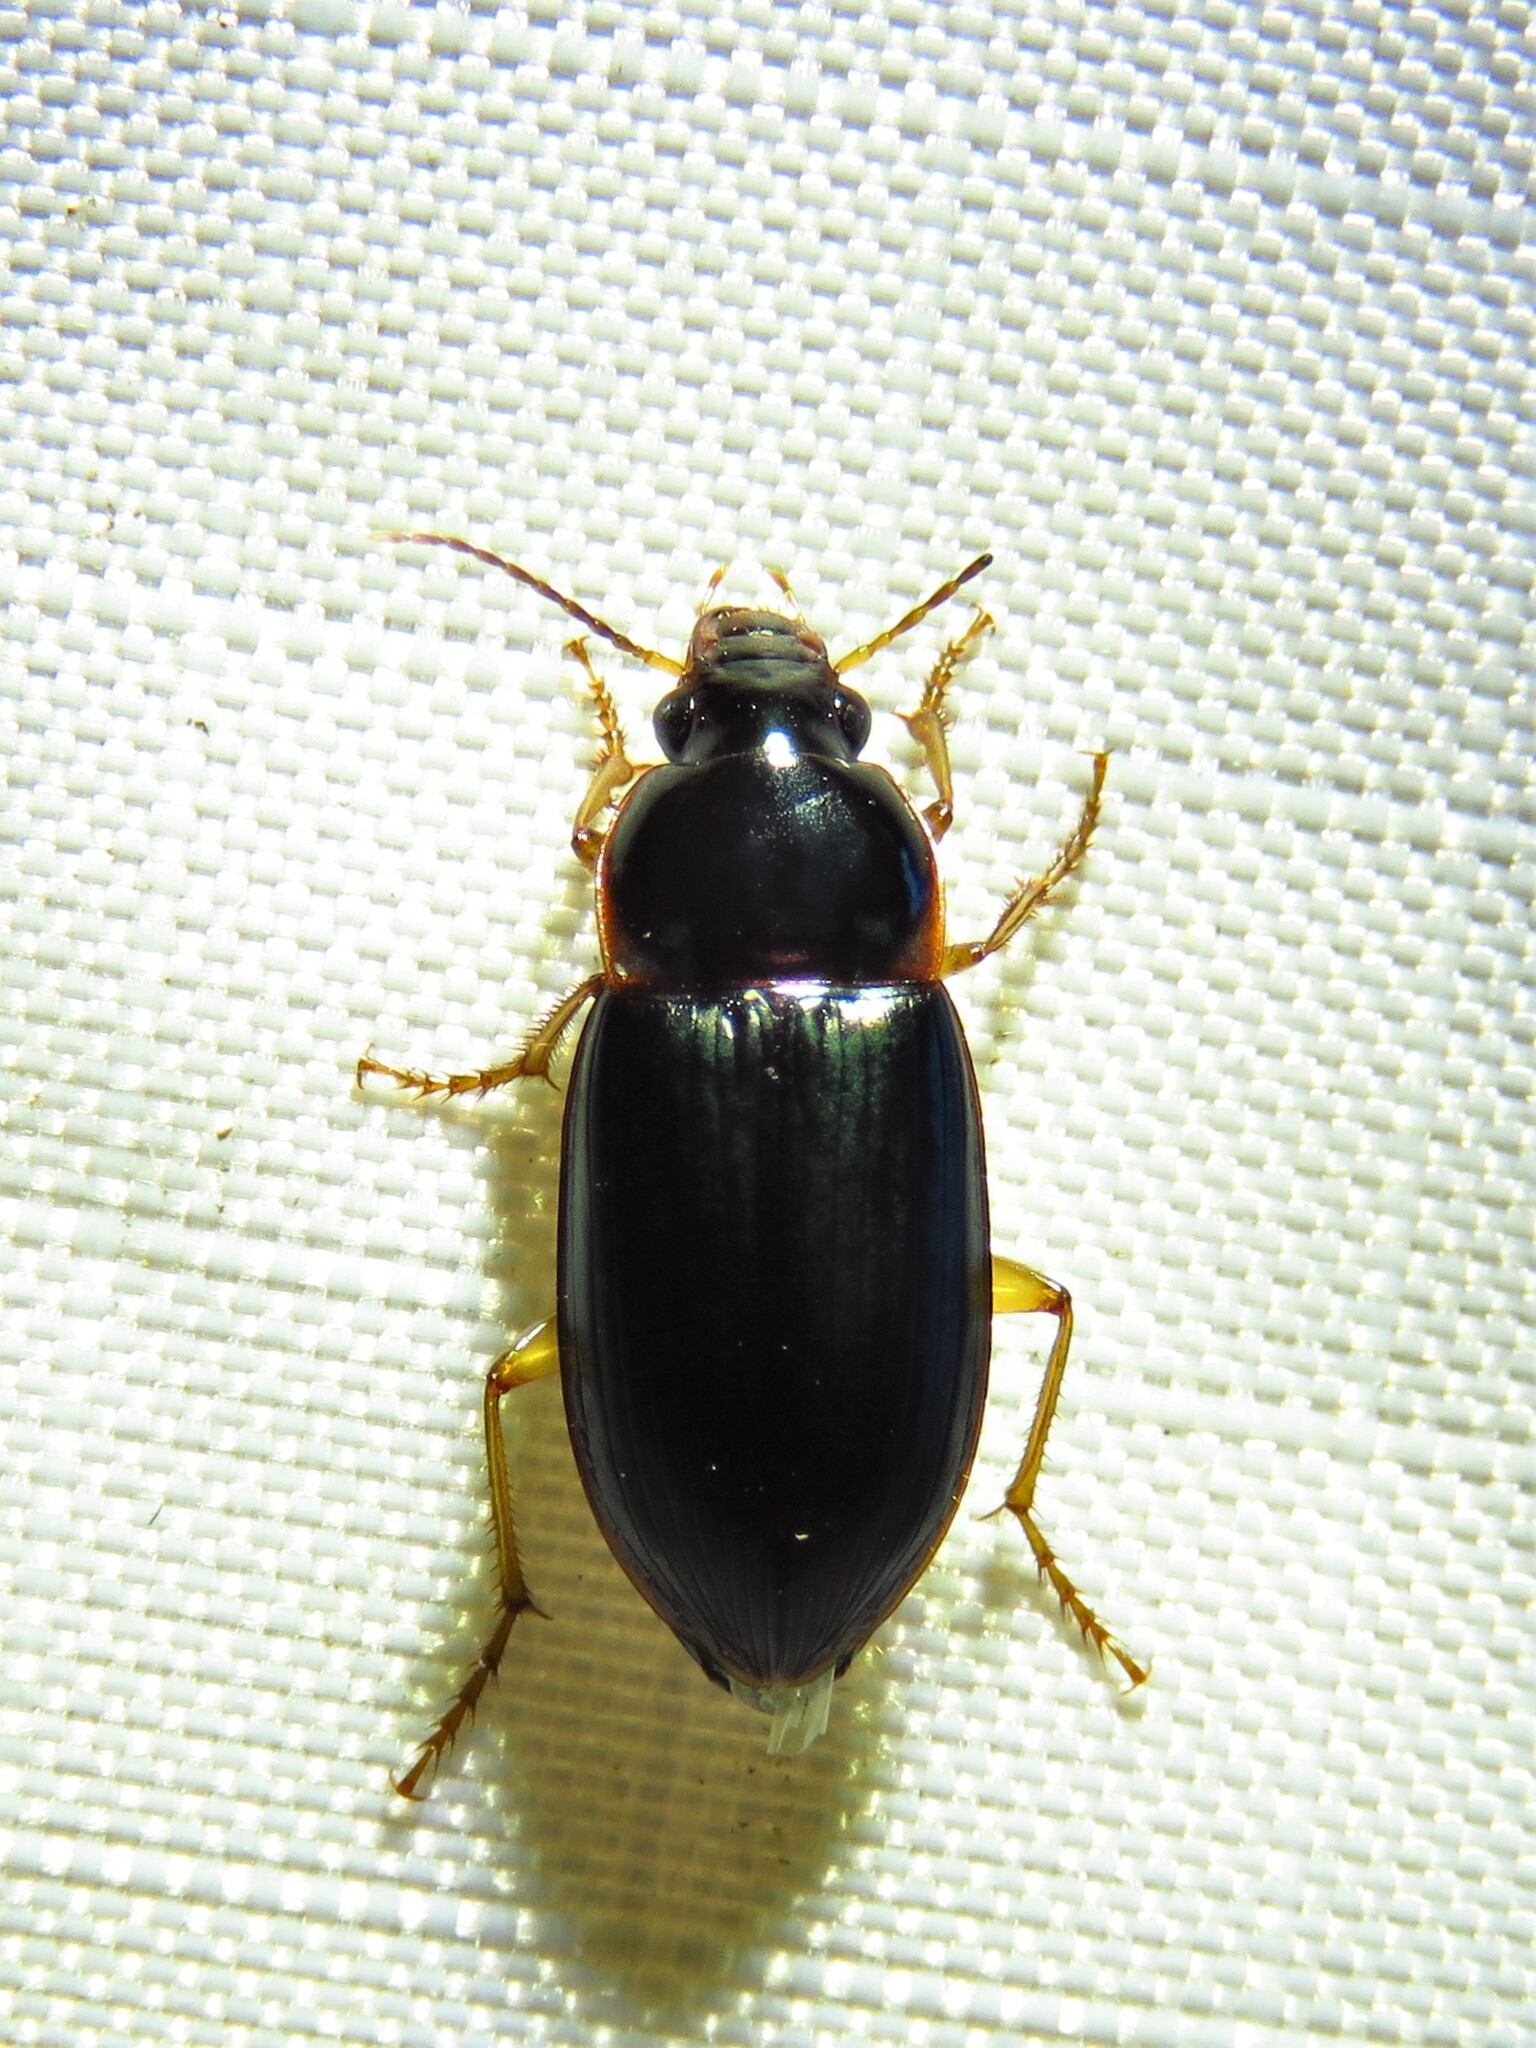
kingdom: Animalia
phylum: Arthropoda
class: Insecta
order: Coleoptera
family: Carabidae
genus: Notiobia
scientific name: Notiobia terminata
